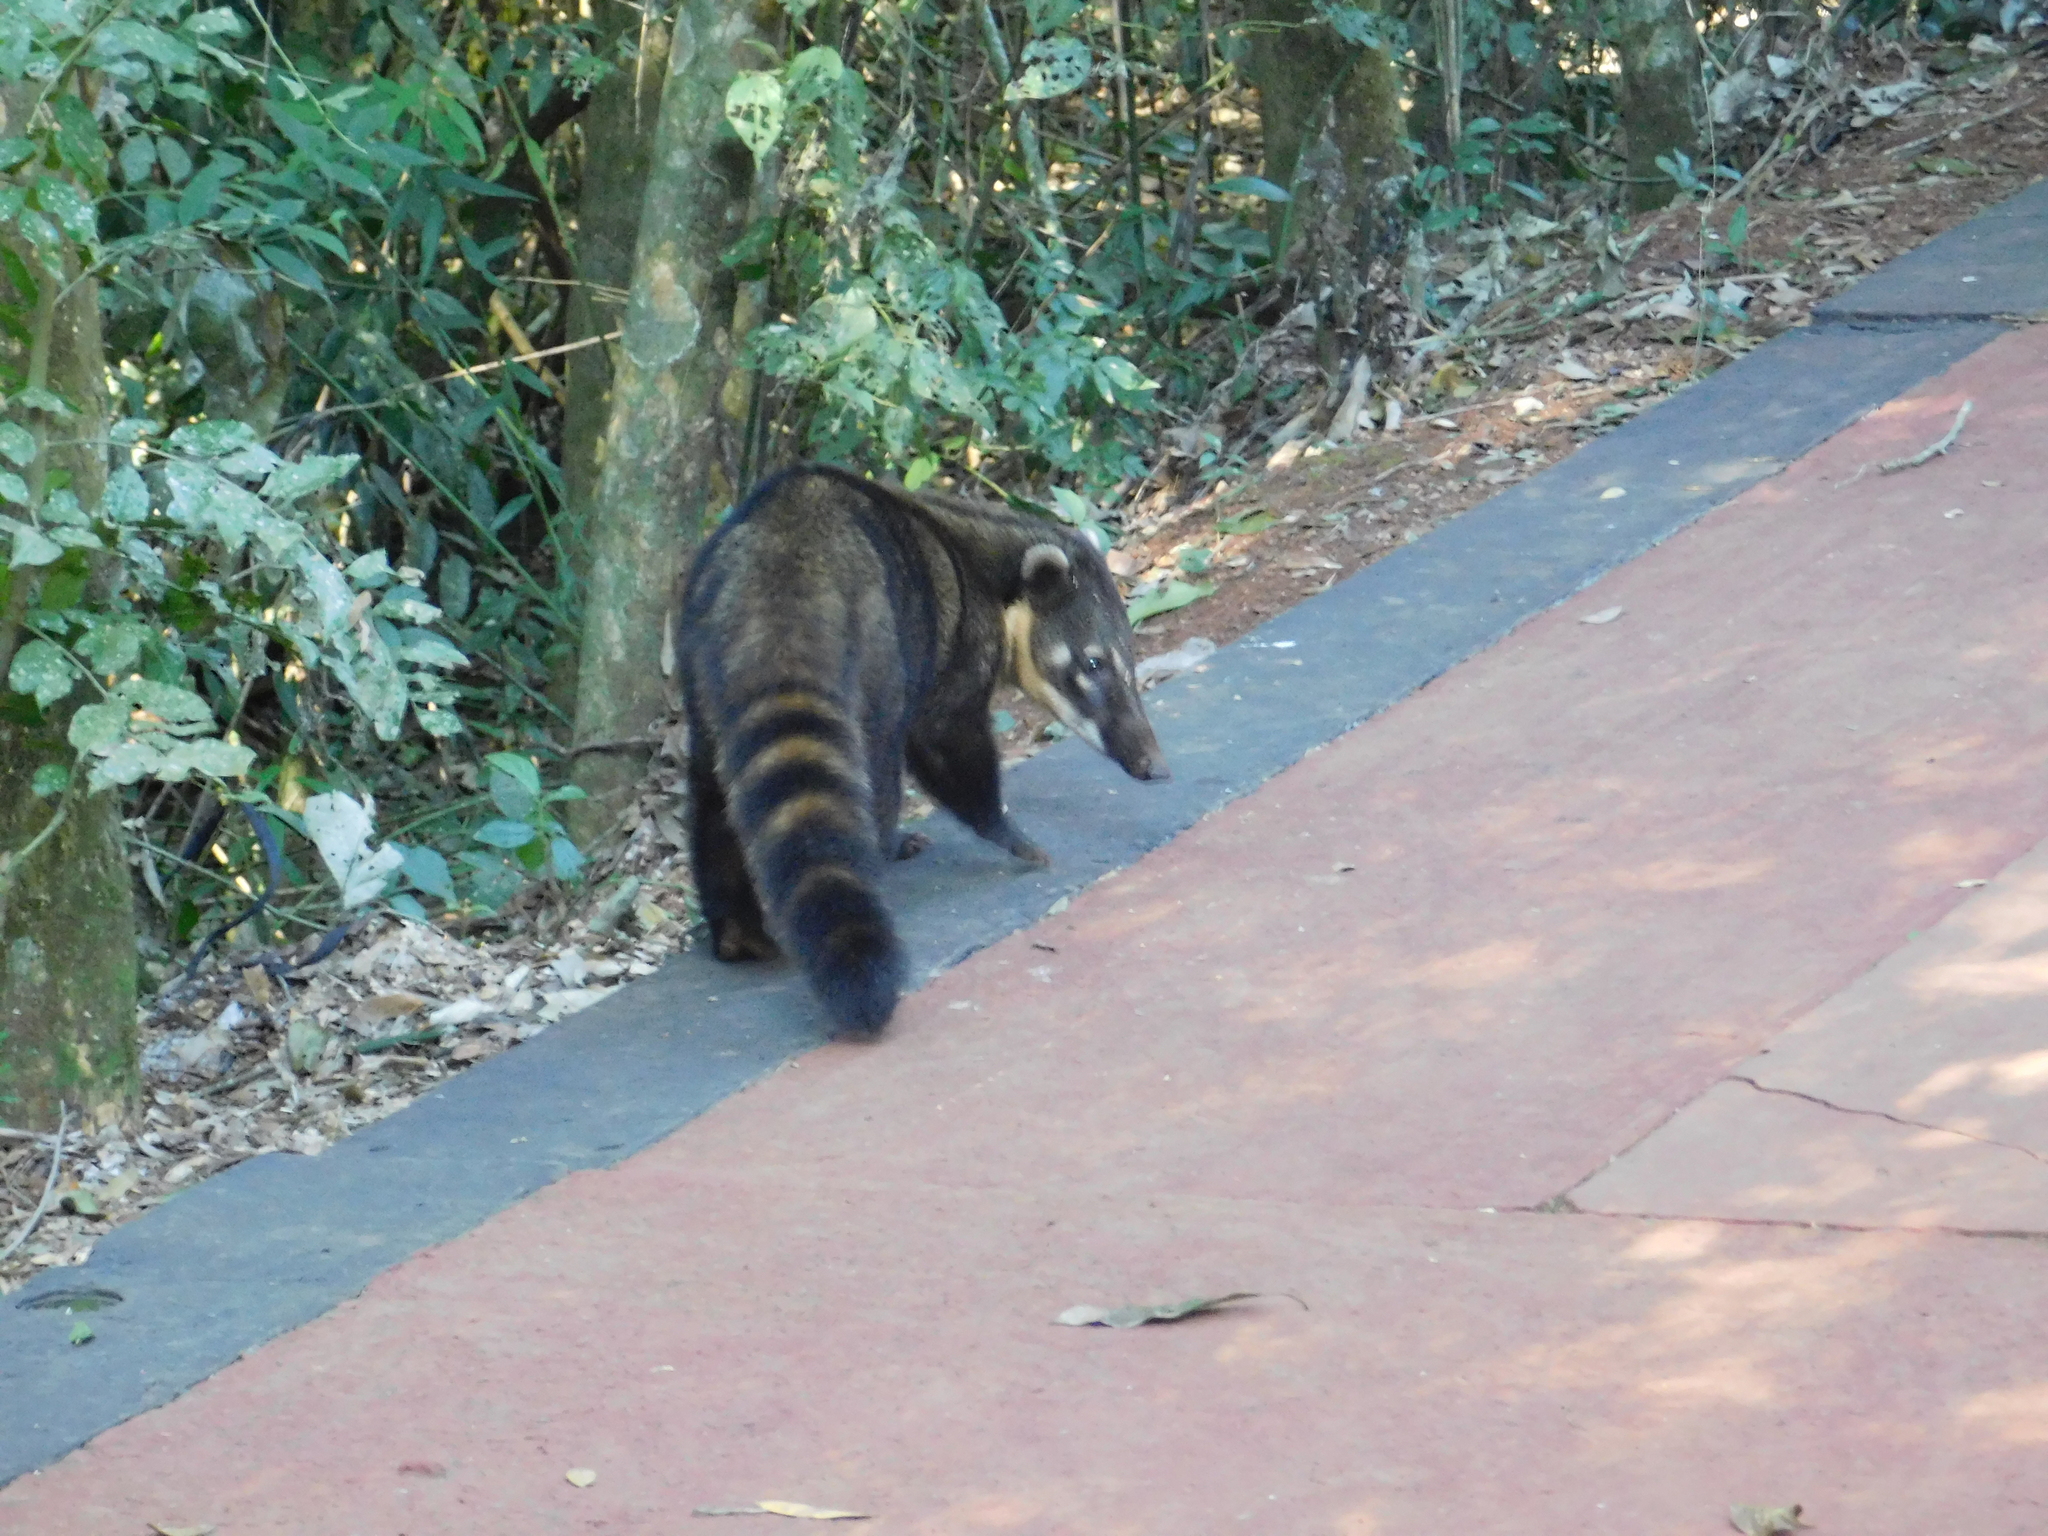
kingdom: Animalia
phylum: Chordata
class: Mammalia
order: Carnivora
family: Procyonidae
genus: Nasua
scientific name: Nasua nasua
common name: South american coati
